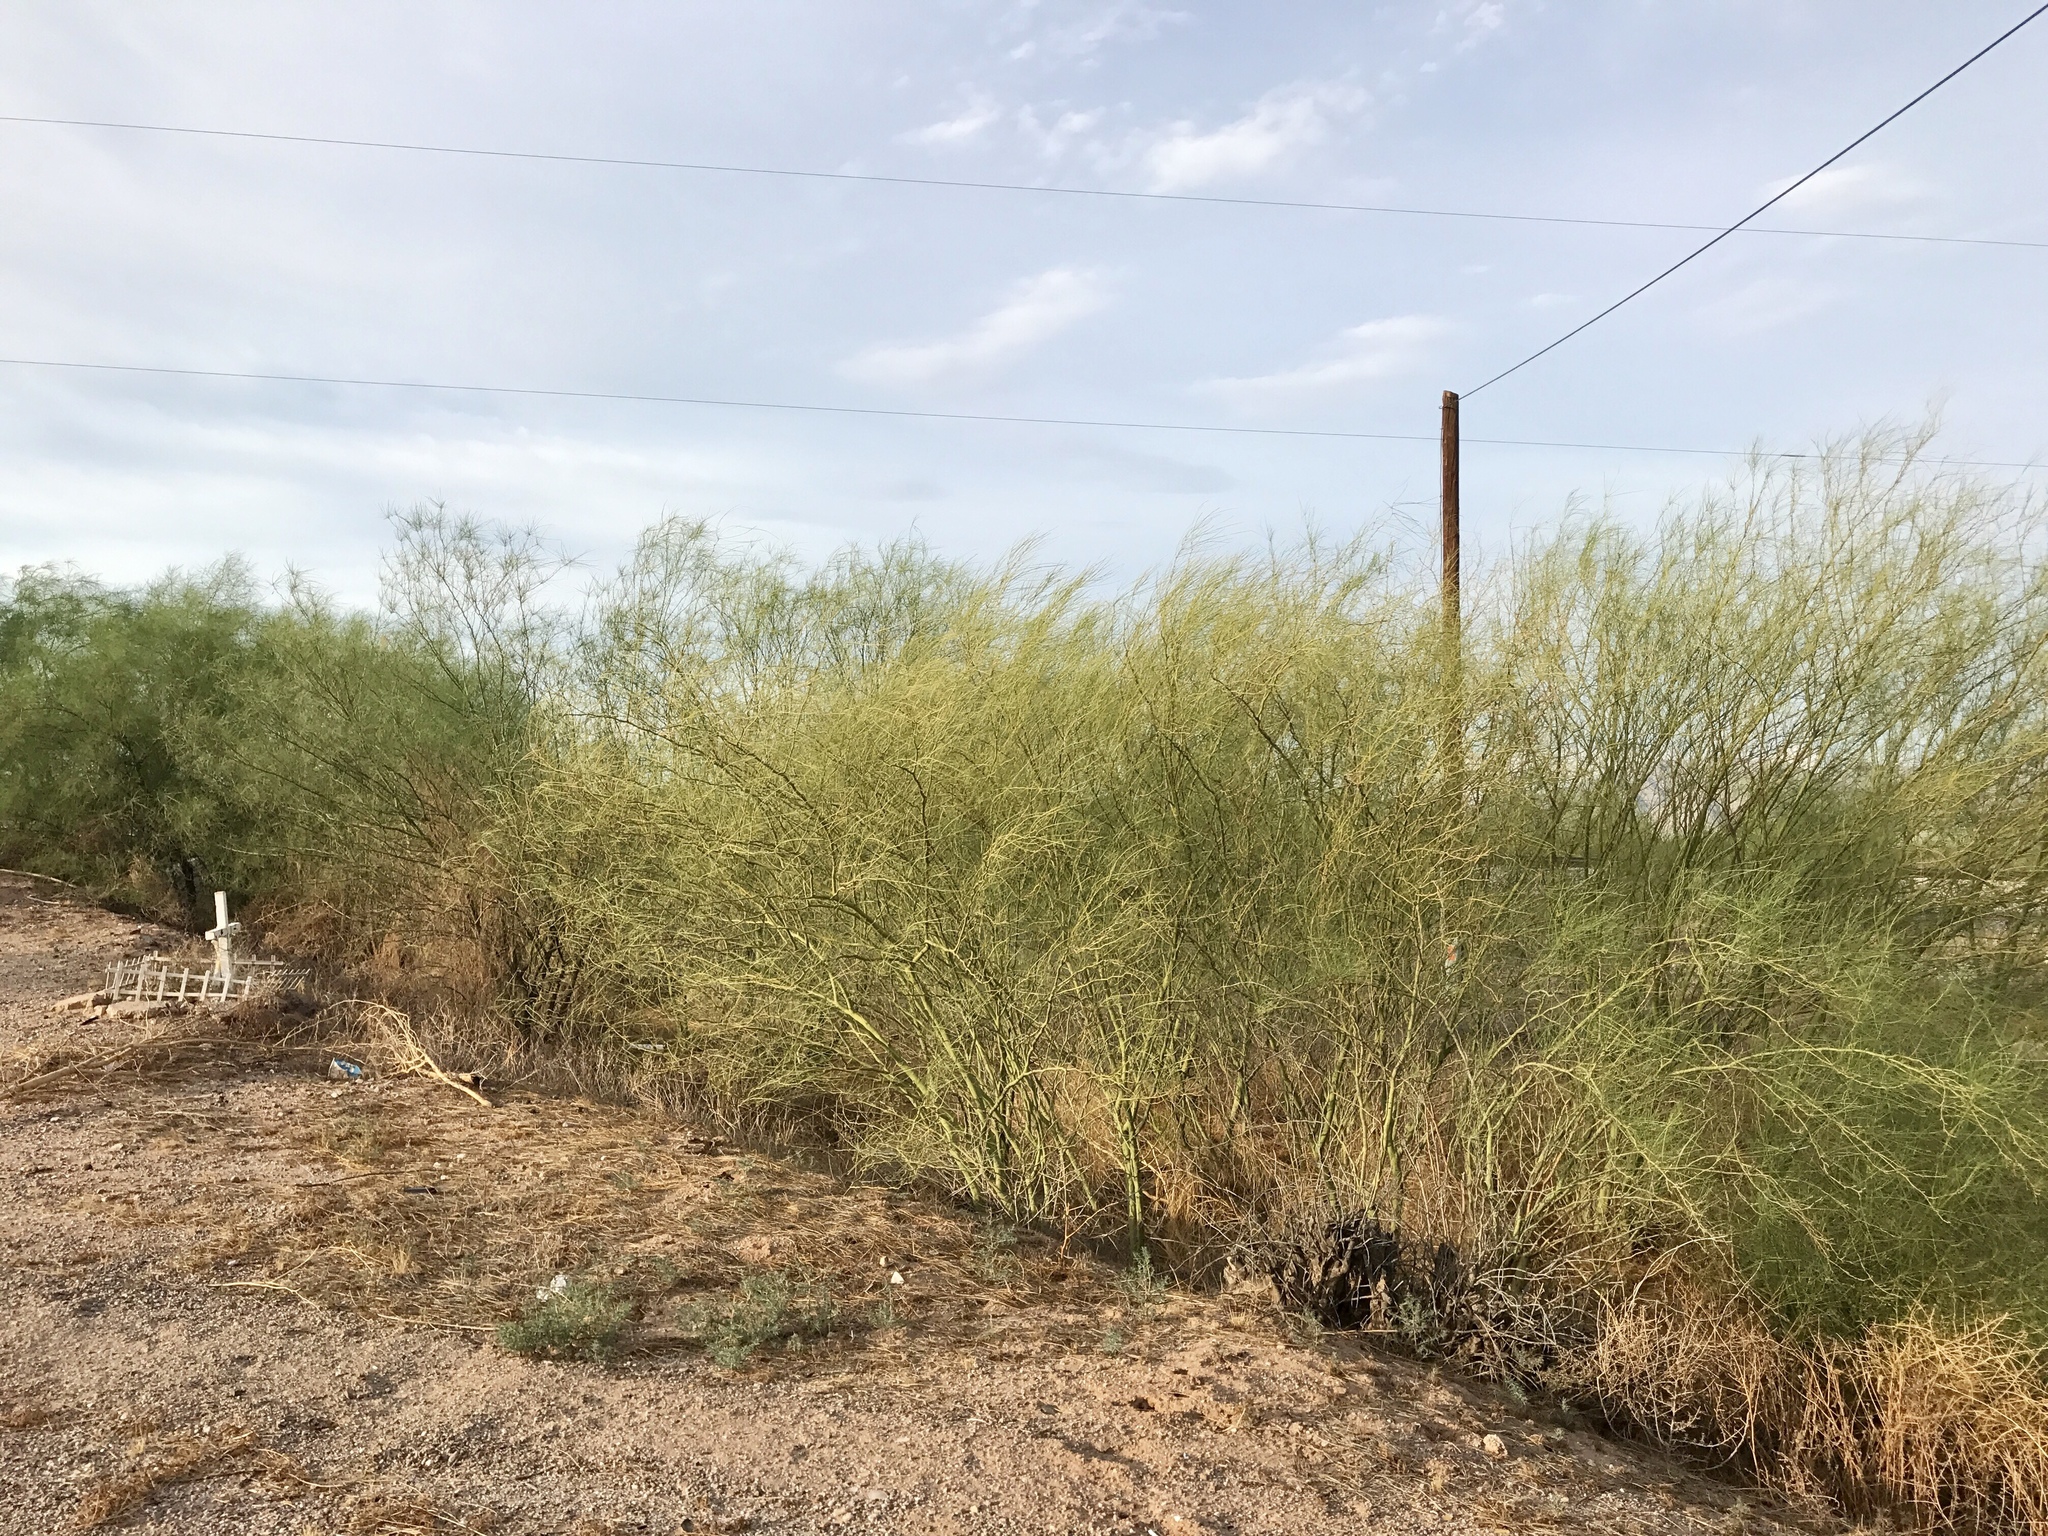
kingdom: Plantae
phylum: Tracheophyta
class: Magnoliopsida
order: Fabales
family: Fabaceae
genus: Parkinsonia
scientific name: Parkinsonia aculeata
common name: Jerusalem thorn
